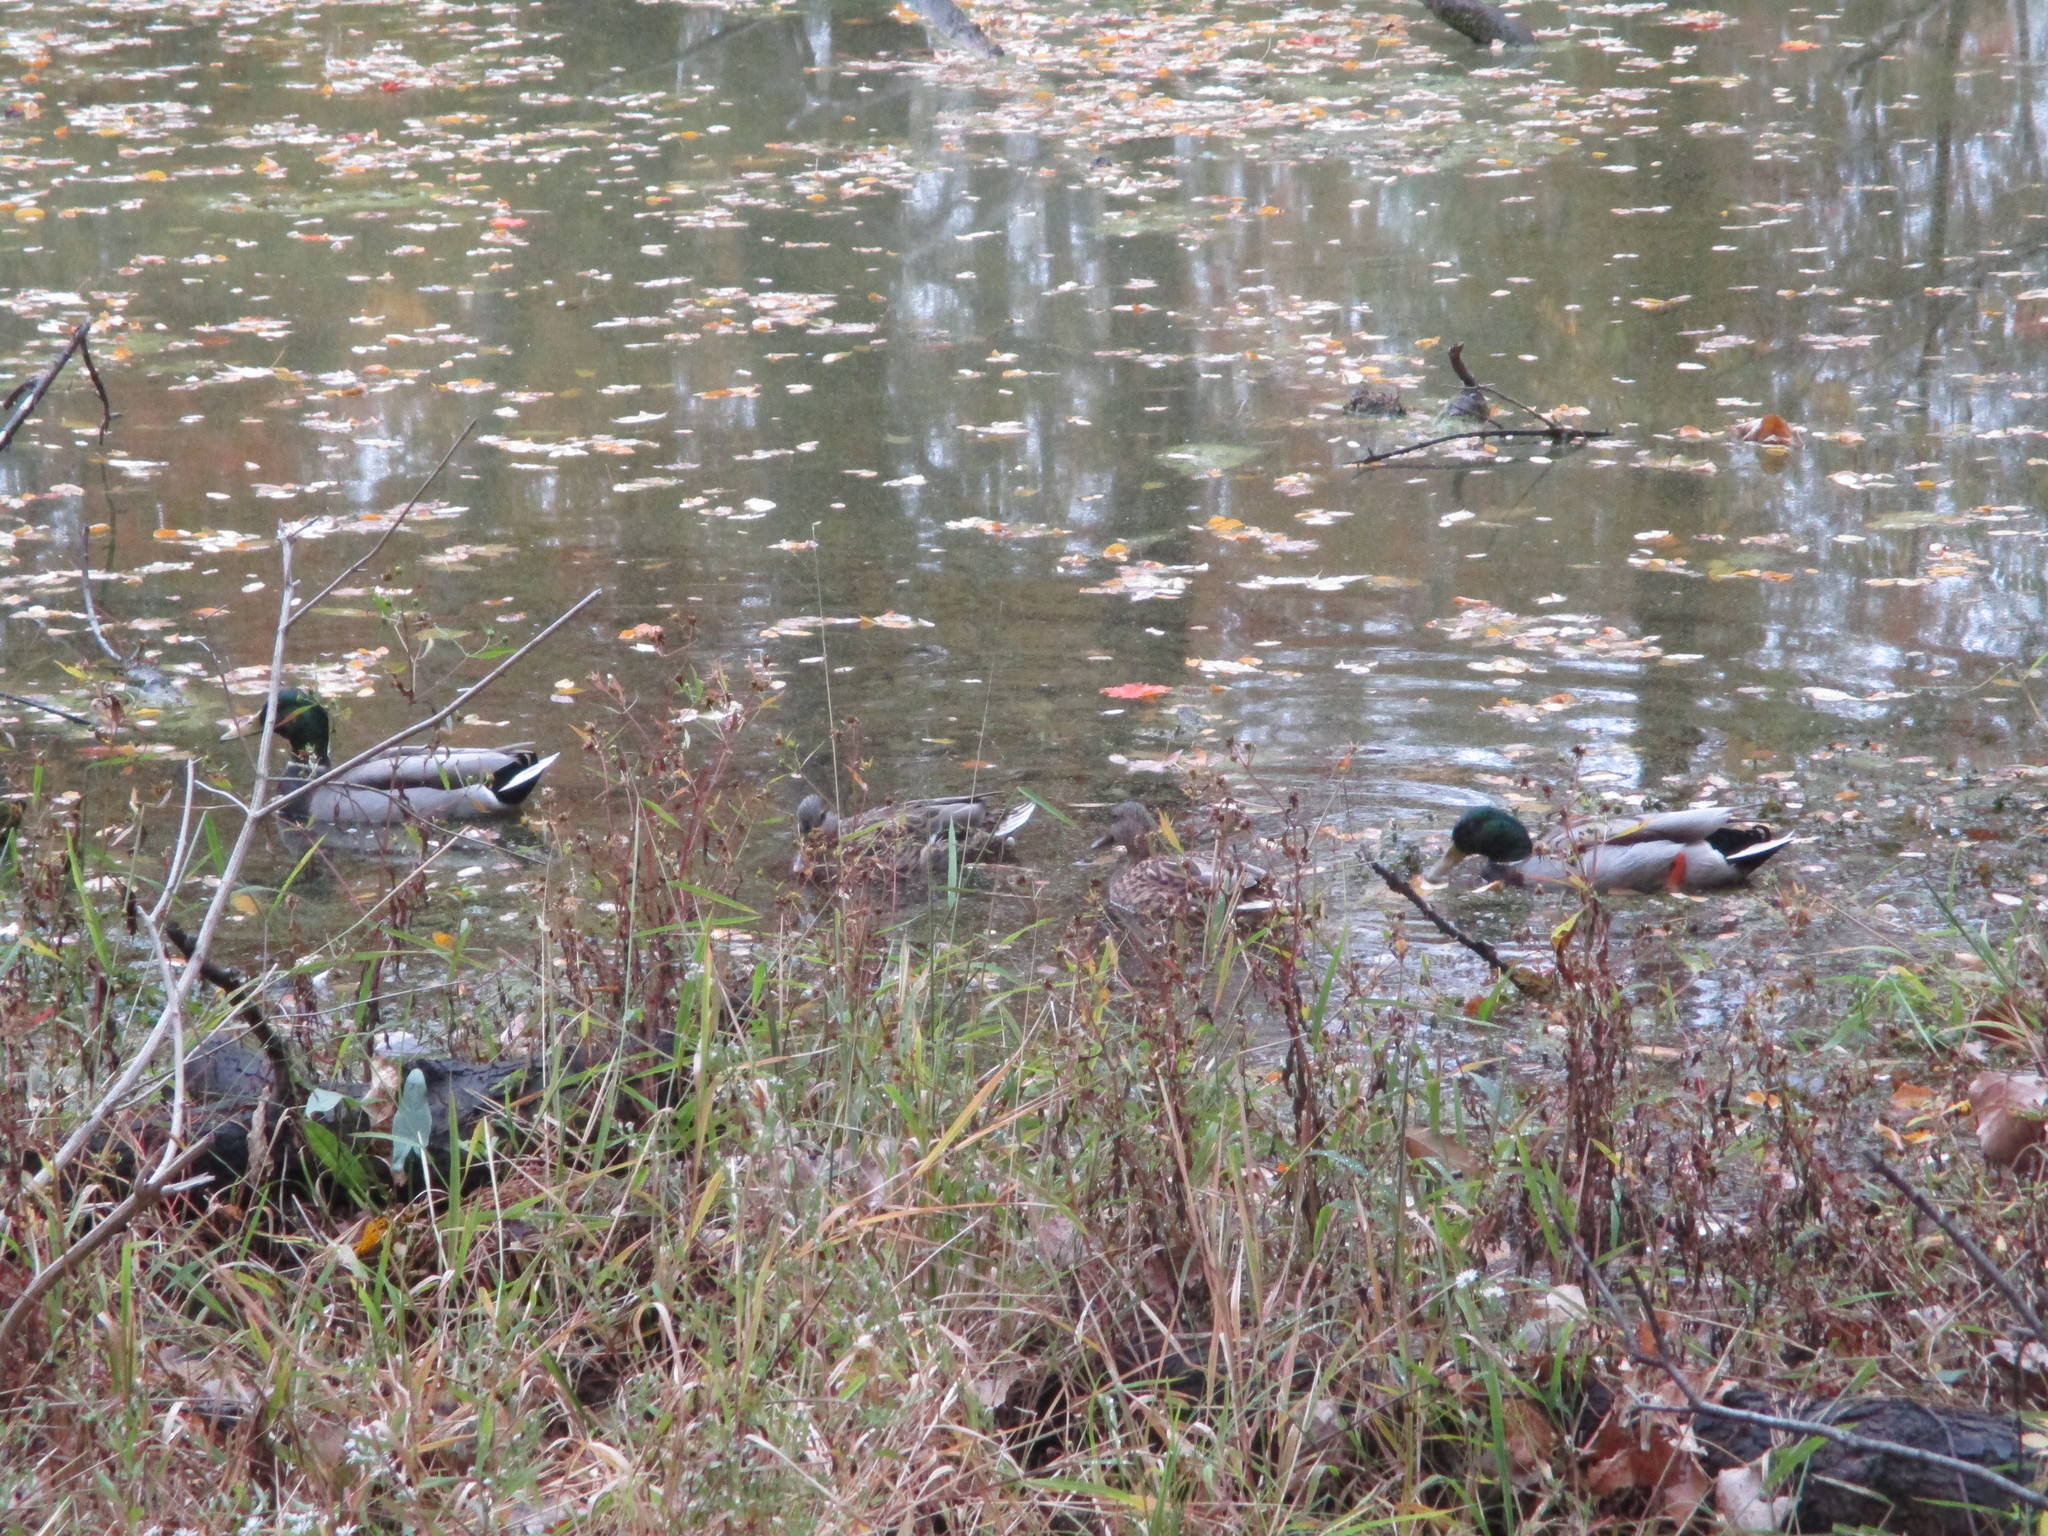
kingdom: Animalia
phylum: Chordata
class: Aves
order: Anseriformes
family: Anatidae
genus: Anas
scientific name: Anas platyrhynchos
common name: Mallard
